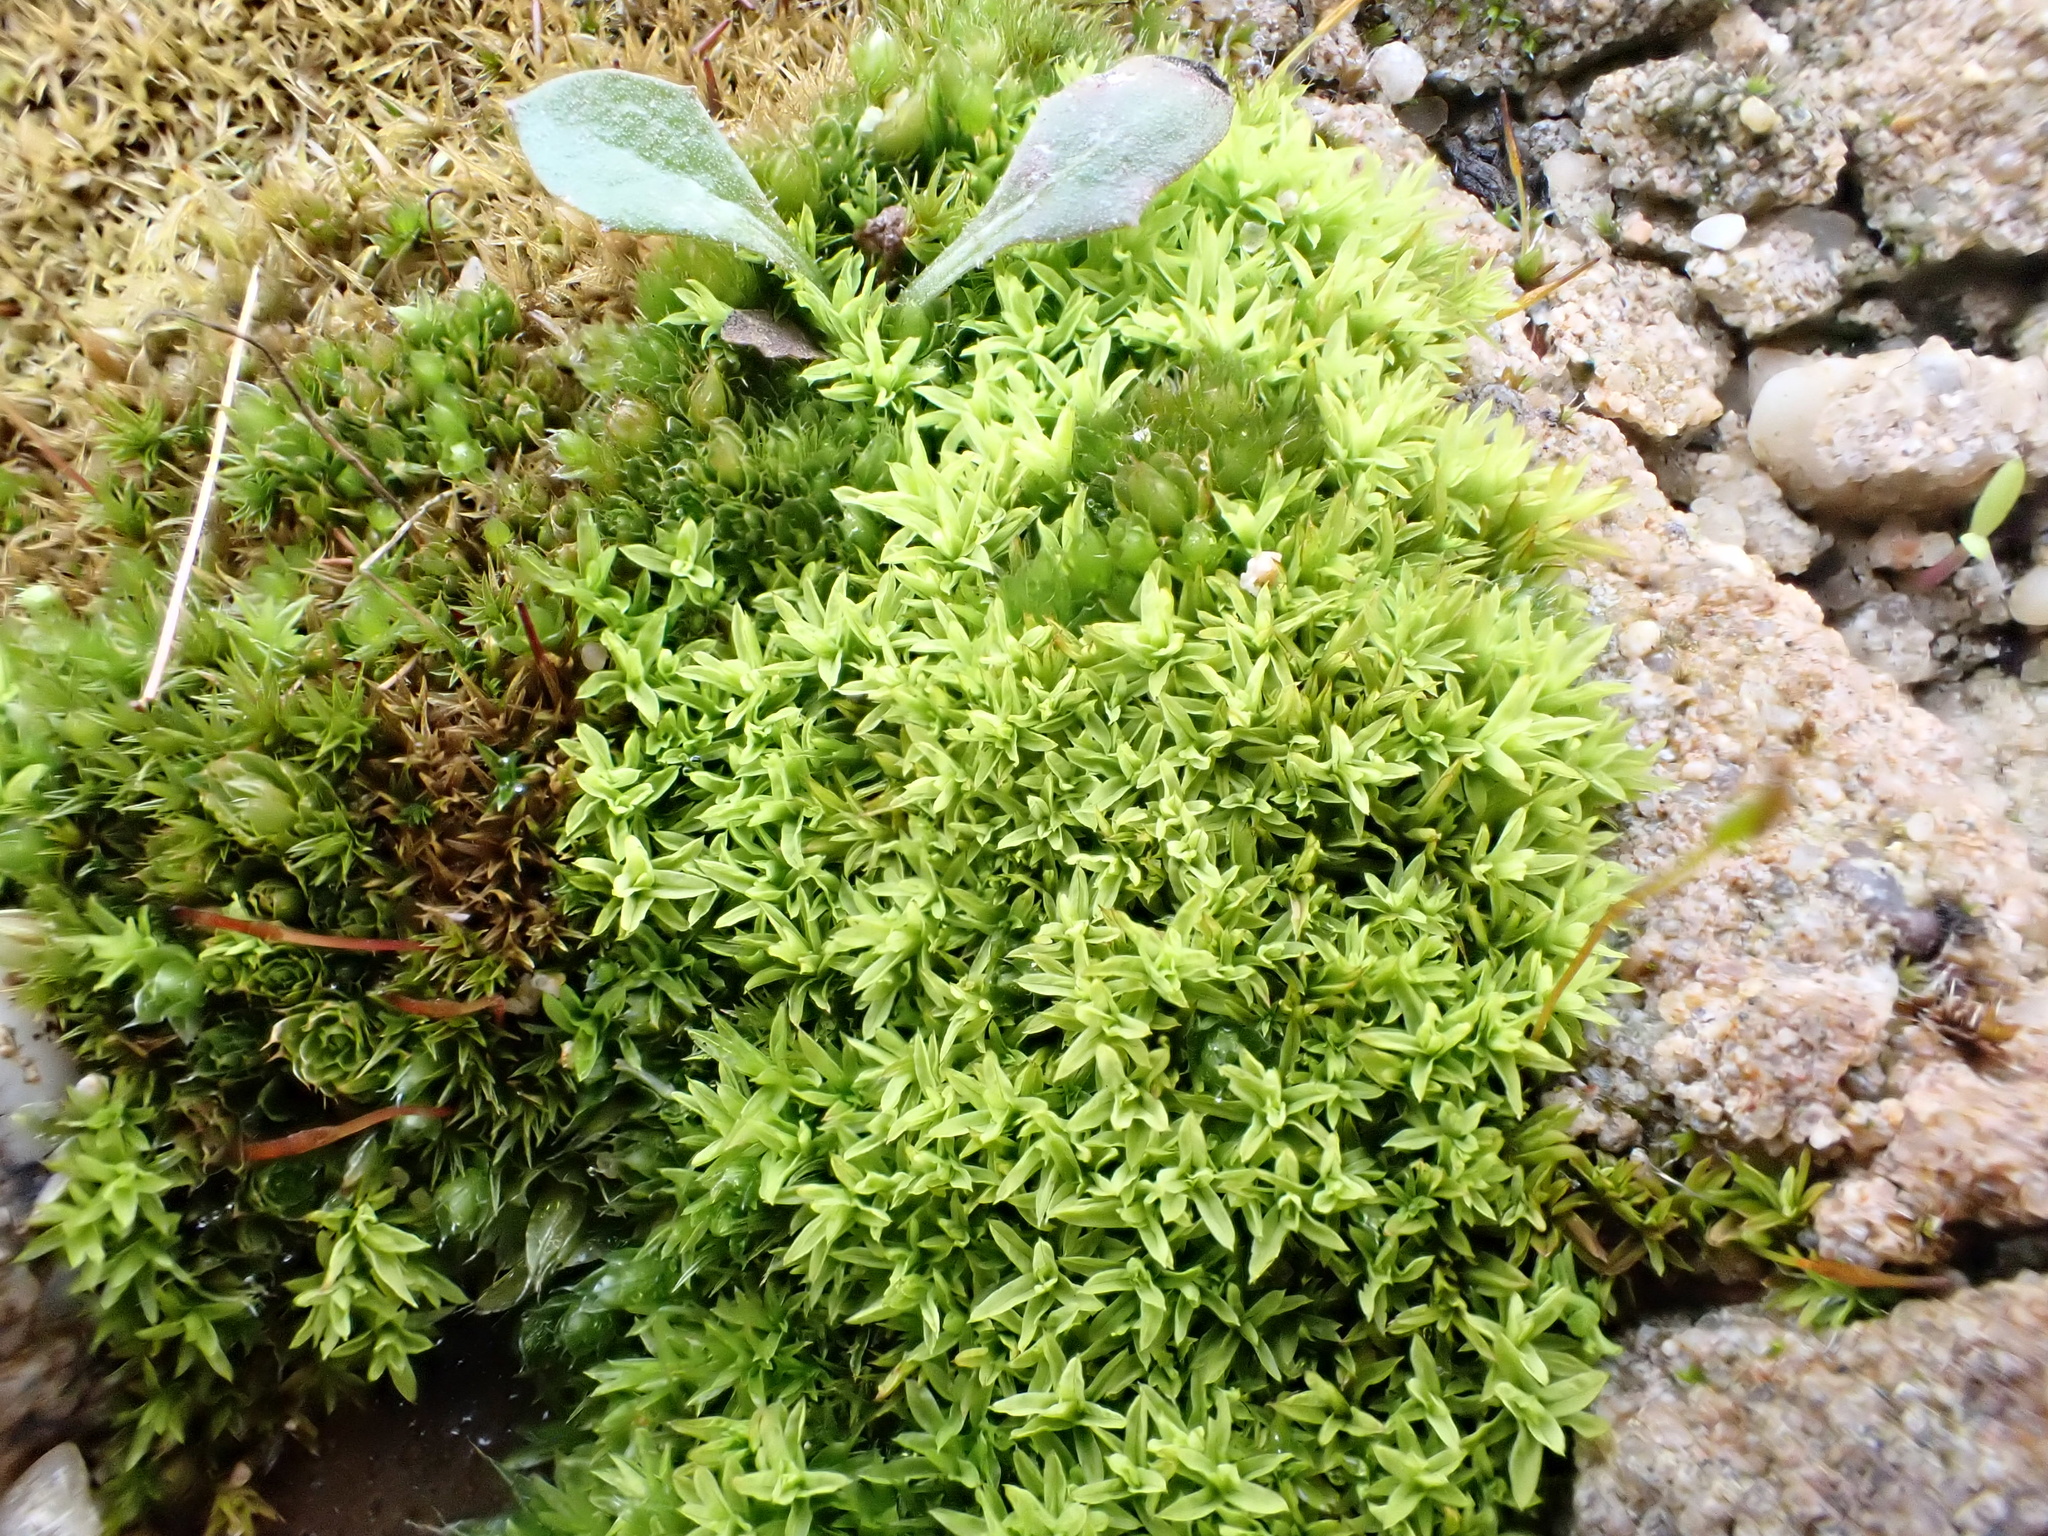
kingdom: Plantae
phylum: Bryophyta
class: Bryopsida
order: Pottiales
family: Pottiaceae
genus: Barbula
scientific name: Barbula unguiculata
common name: Prickly beard moss
